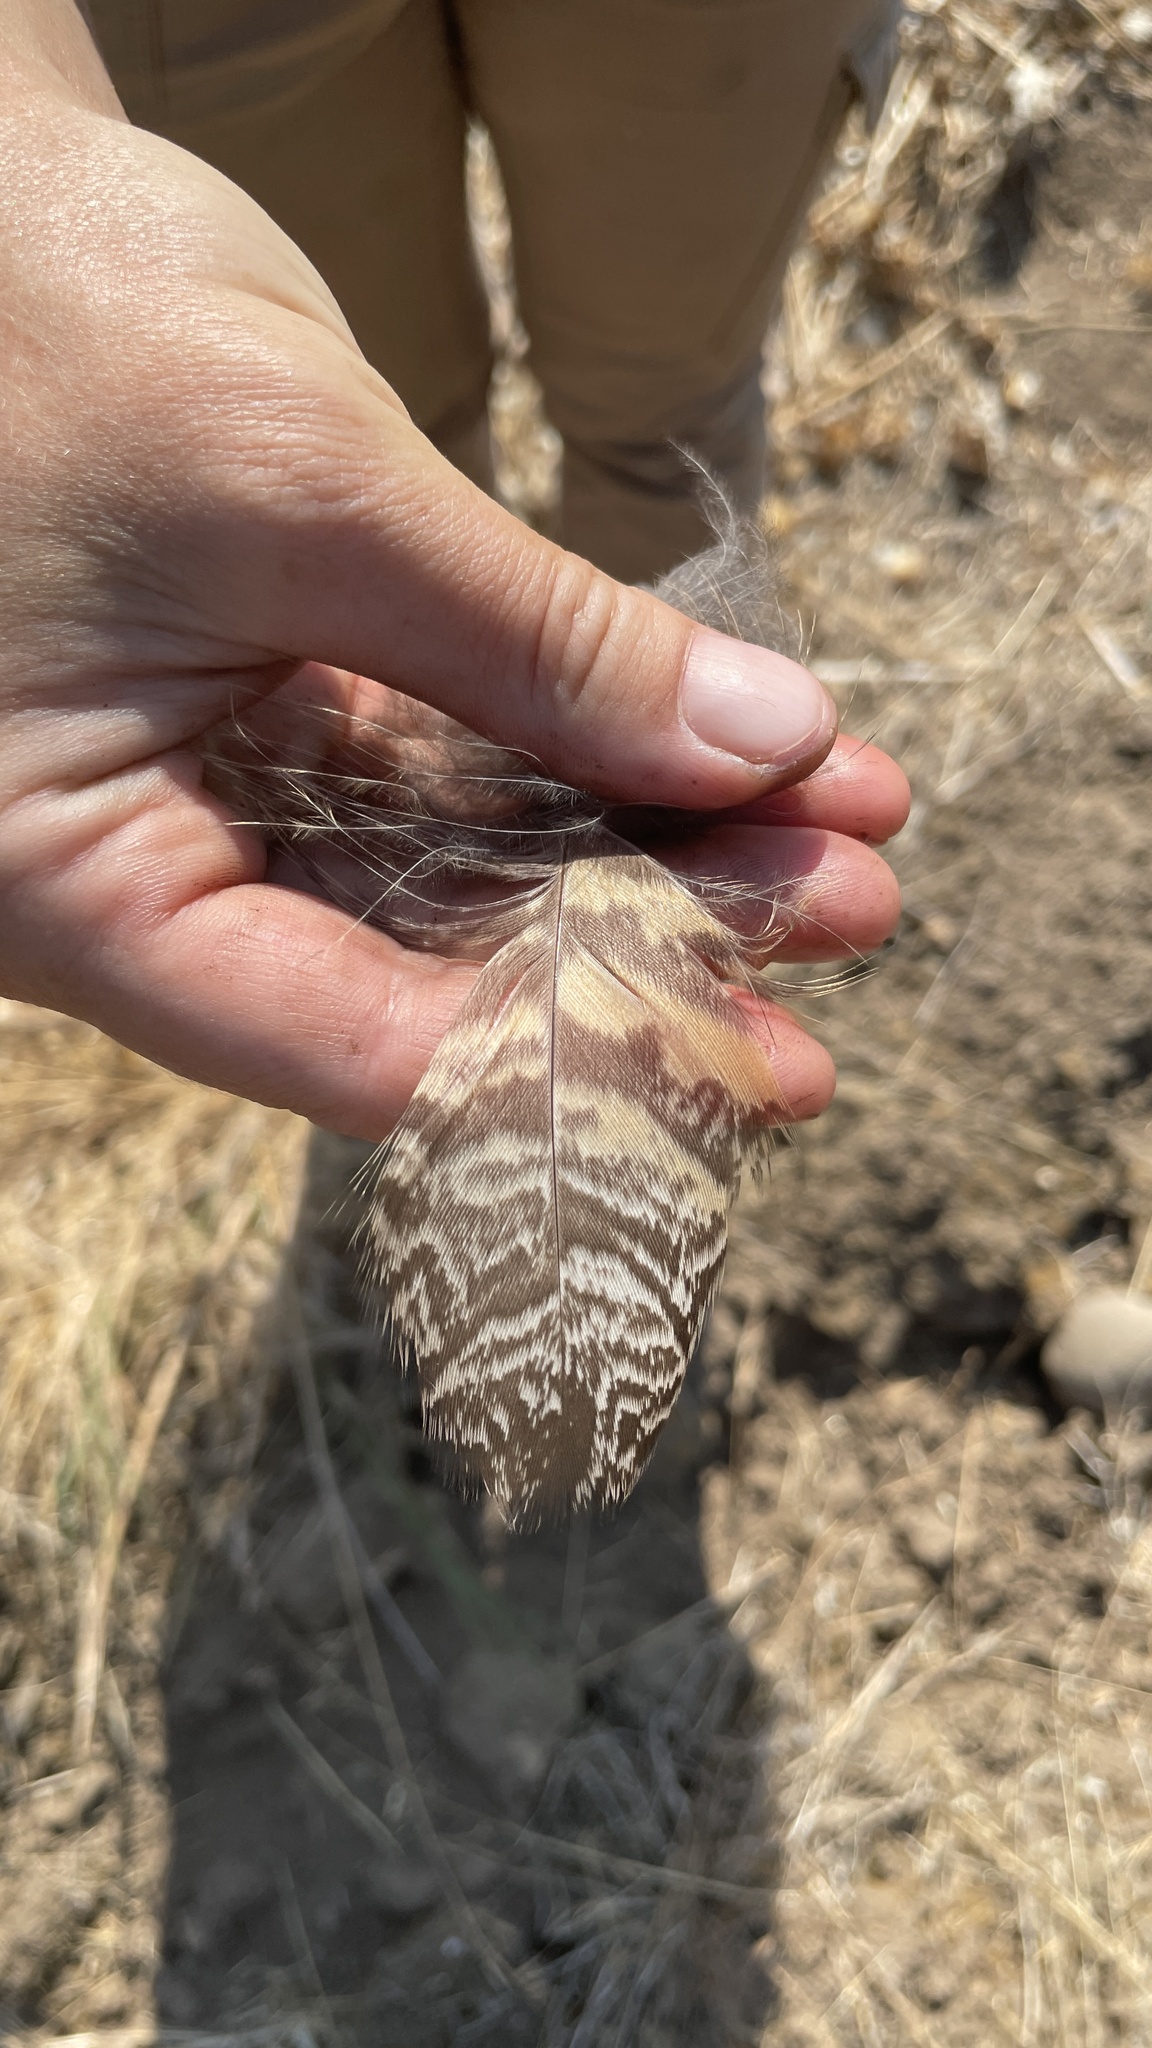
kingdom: Animalia
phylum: Chordata
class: Aves
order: Strigiformes
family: Strigidae
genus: Bubo
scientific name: Bubo virginianus
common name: Great horned owl
